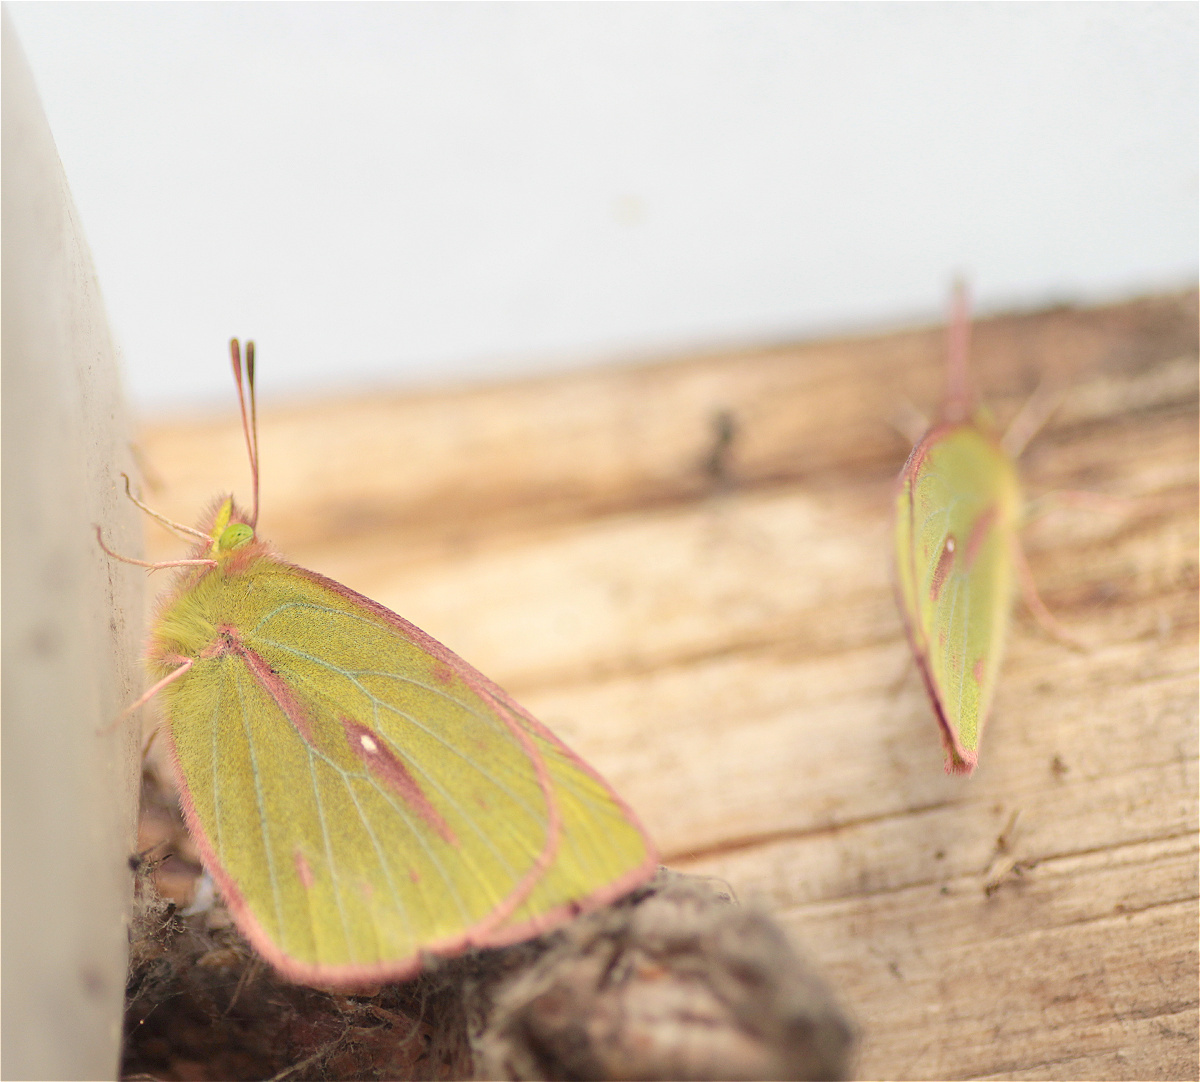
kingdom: Animalia
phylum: Arthropoda
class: Insecta
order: Lepidoptera
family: Pieridae
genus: Colias
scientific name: Colias dimera
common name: Dimera sulphur
